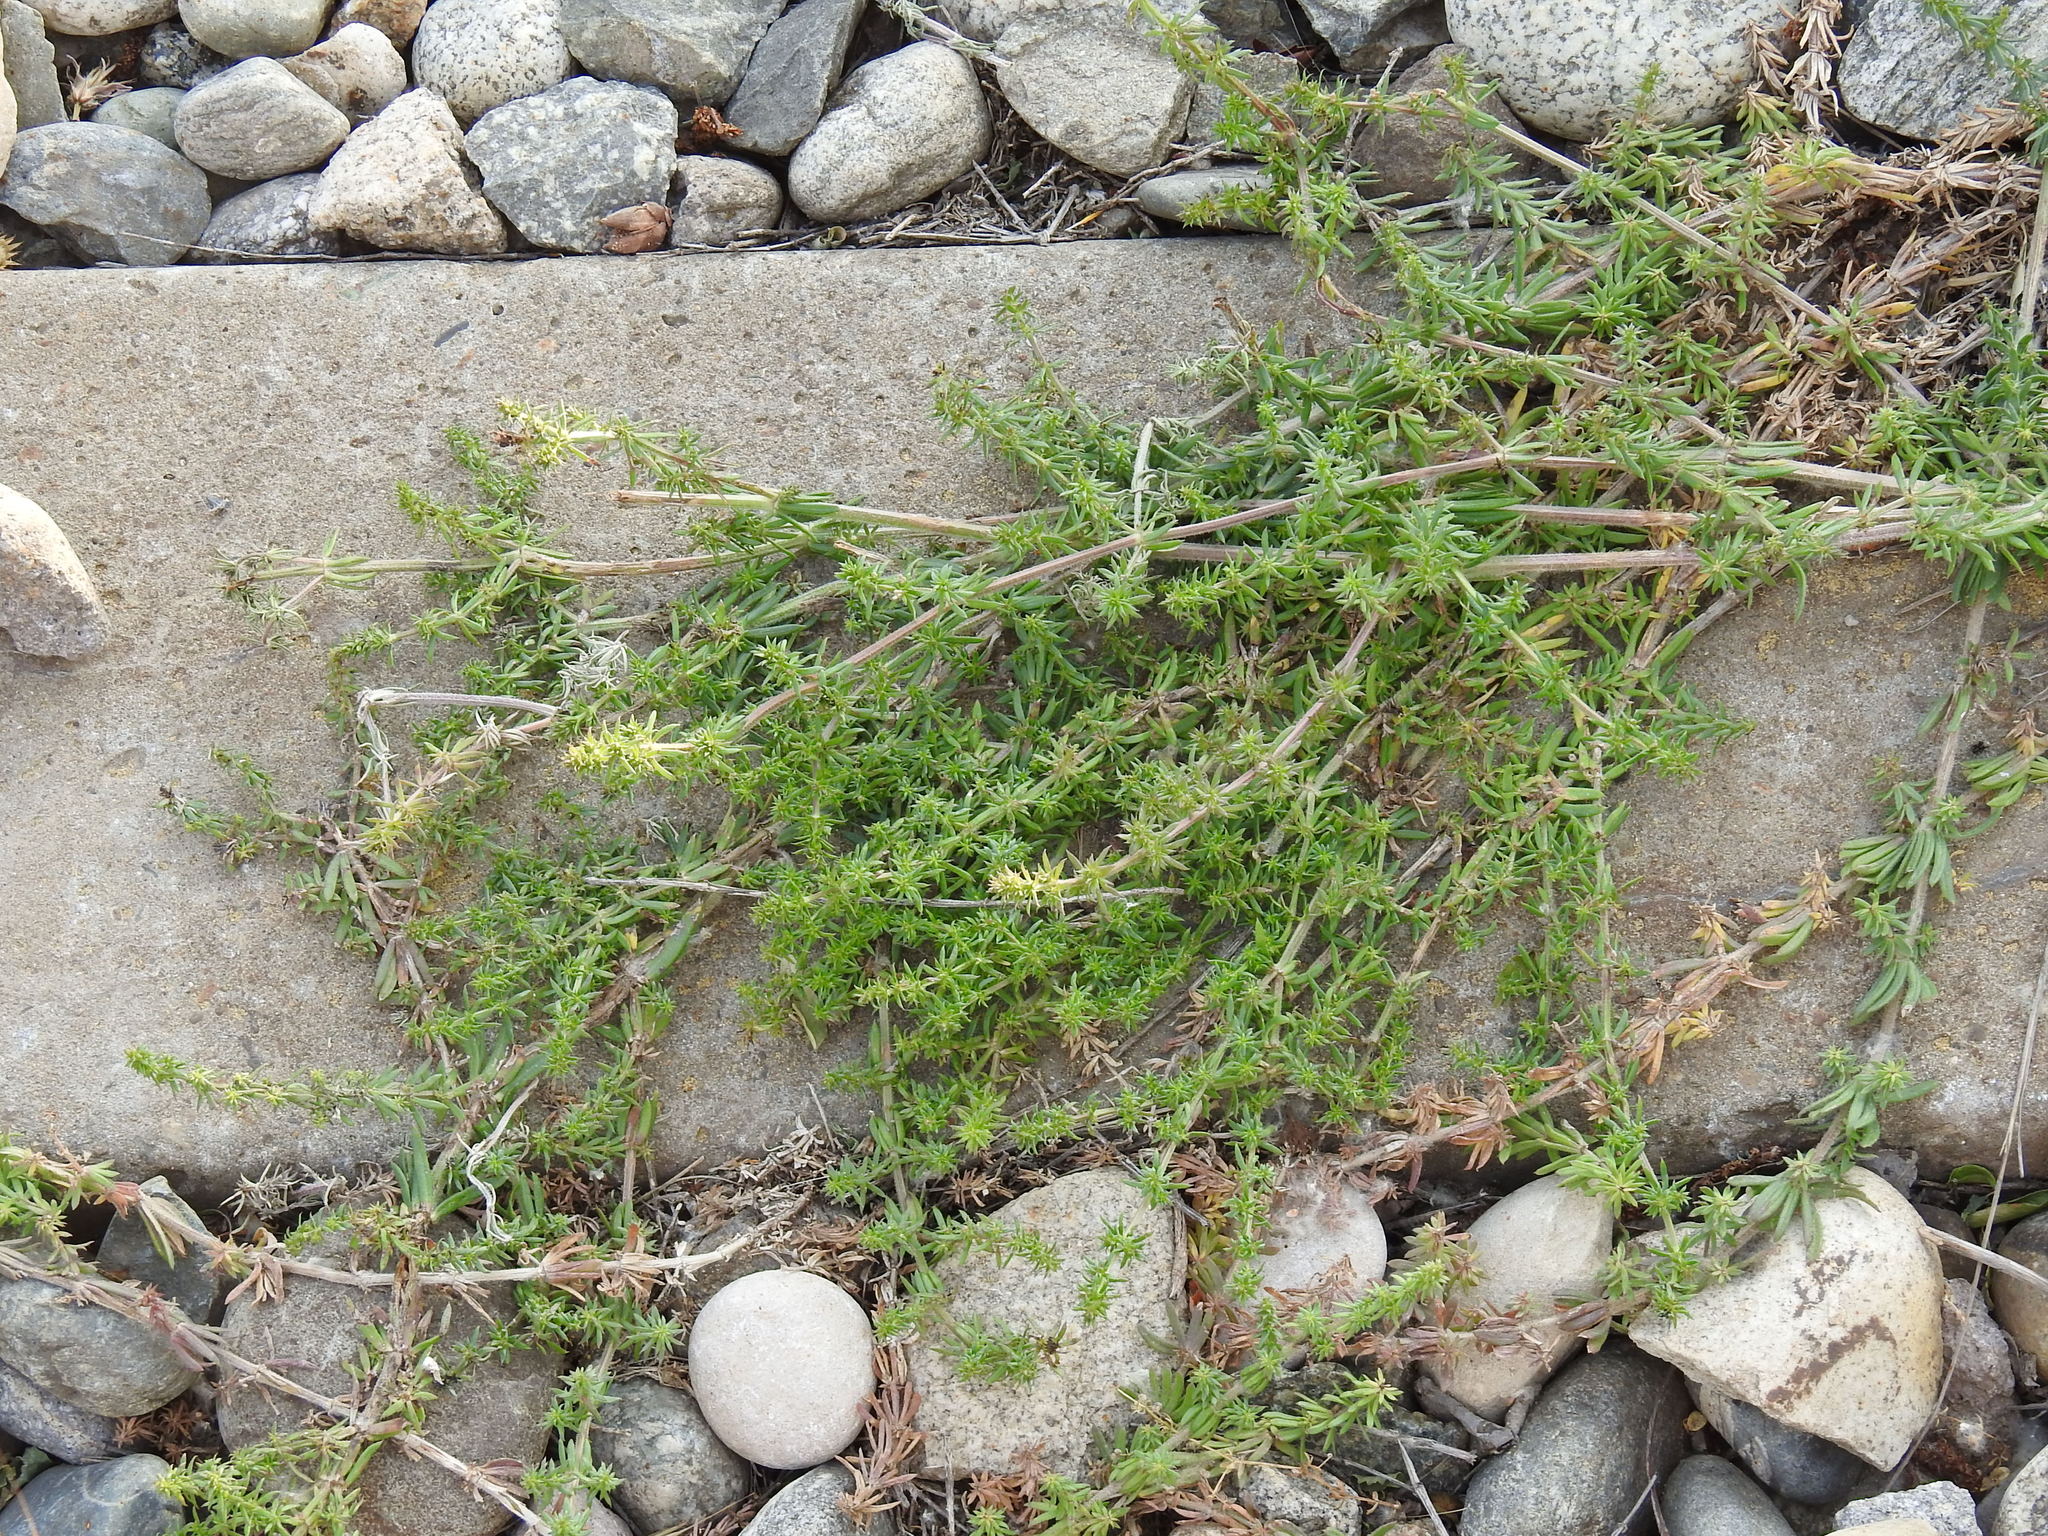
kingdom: Plantae
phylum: Tracheophyta
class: Magnoliopsida
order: Gentianales
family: Rubiaceae
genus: Galium
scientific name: Galium humifusum
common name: Spreading bedstraw
